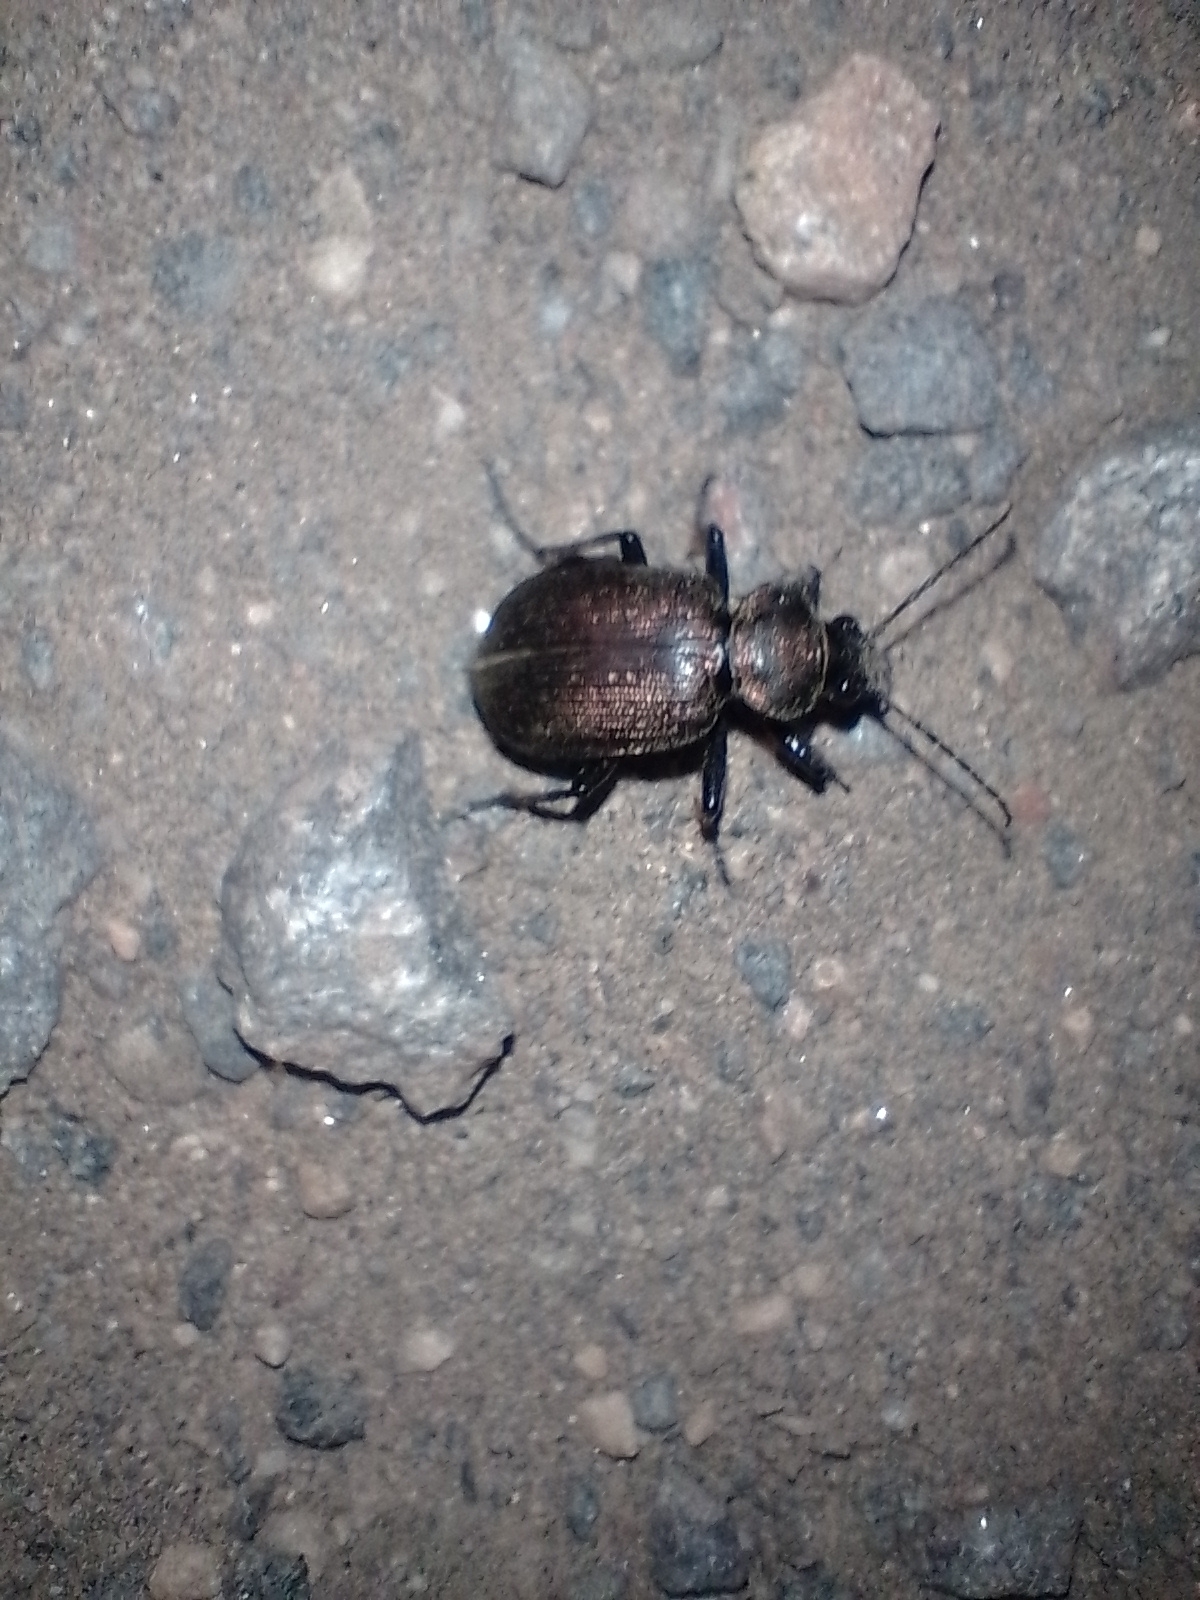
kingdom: Animalia
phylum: Arthropoda
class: Insecta
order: Coleoptera
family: Carabidae
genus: Calosoma
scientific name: Calosoma alternans
